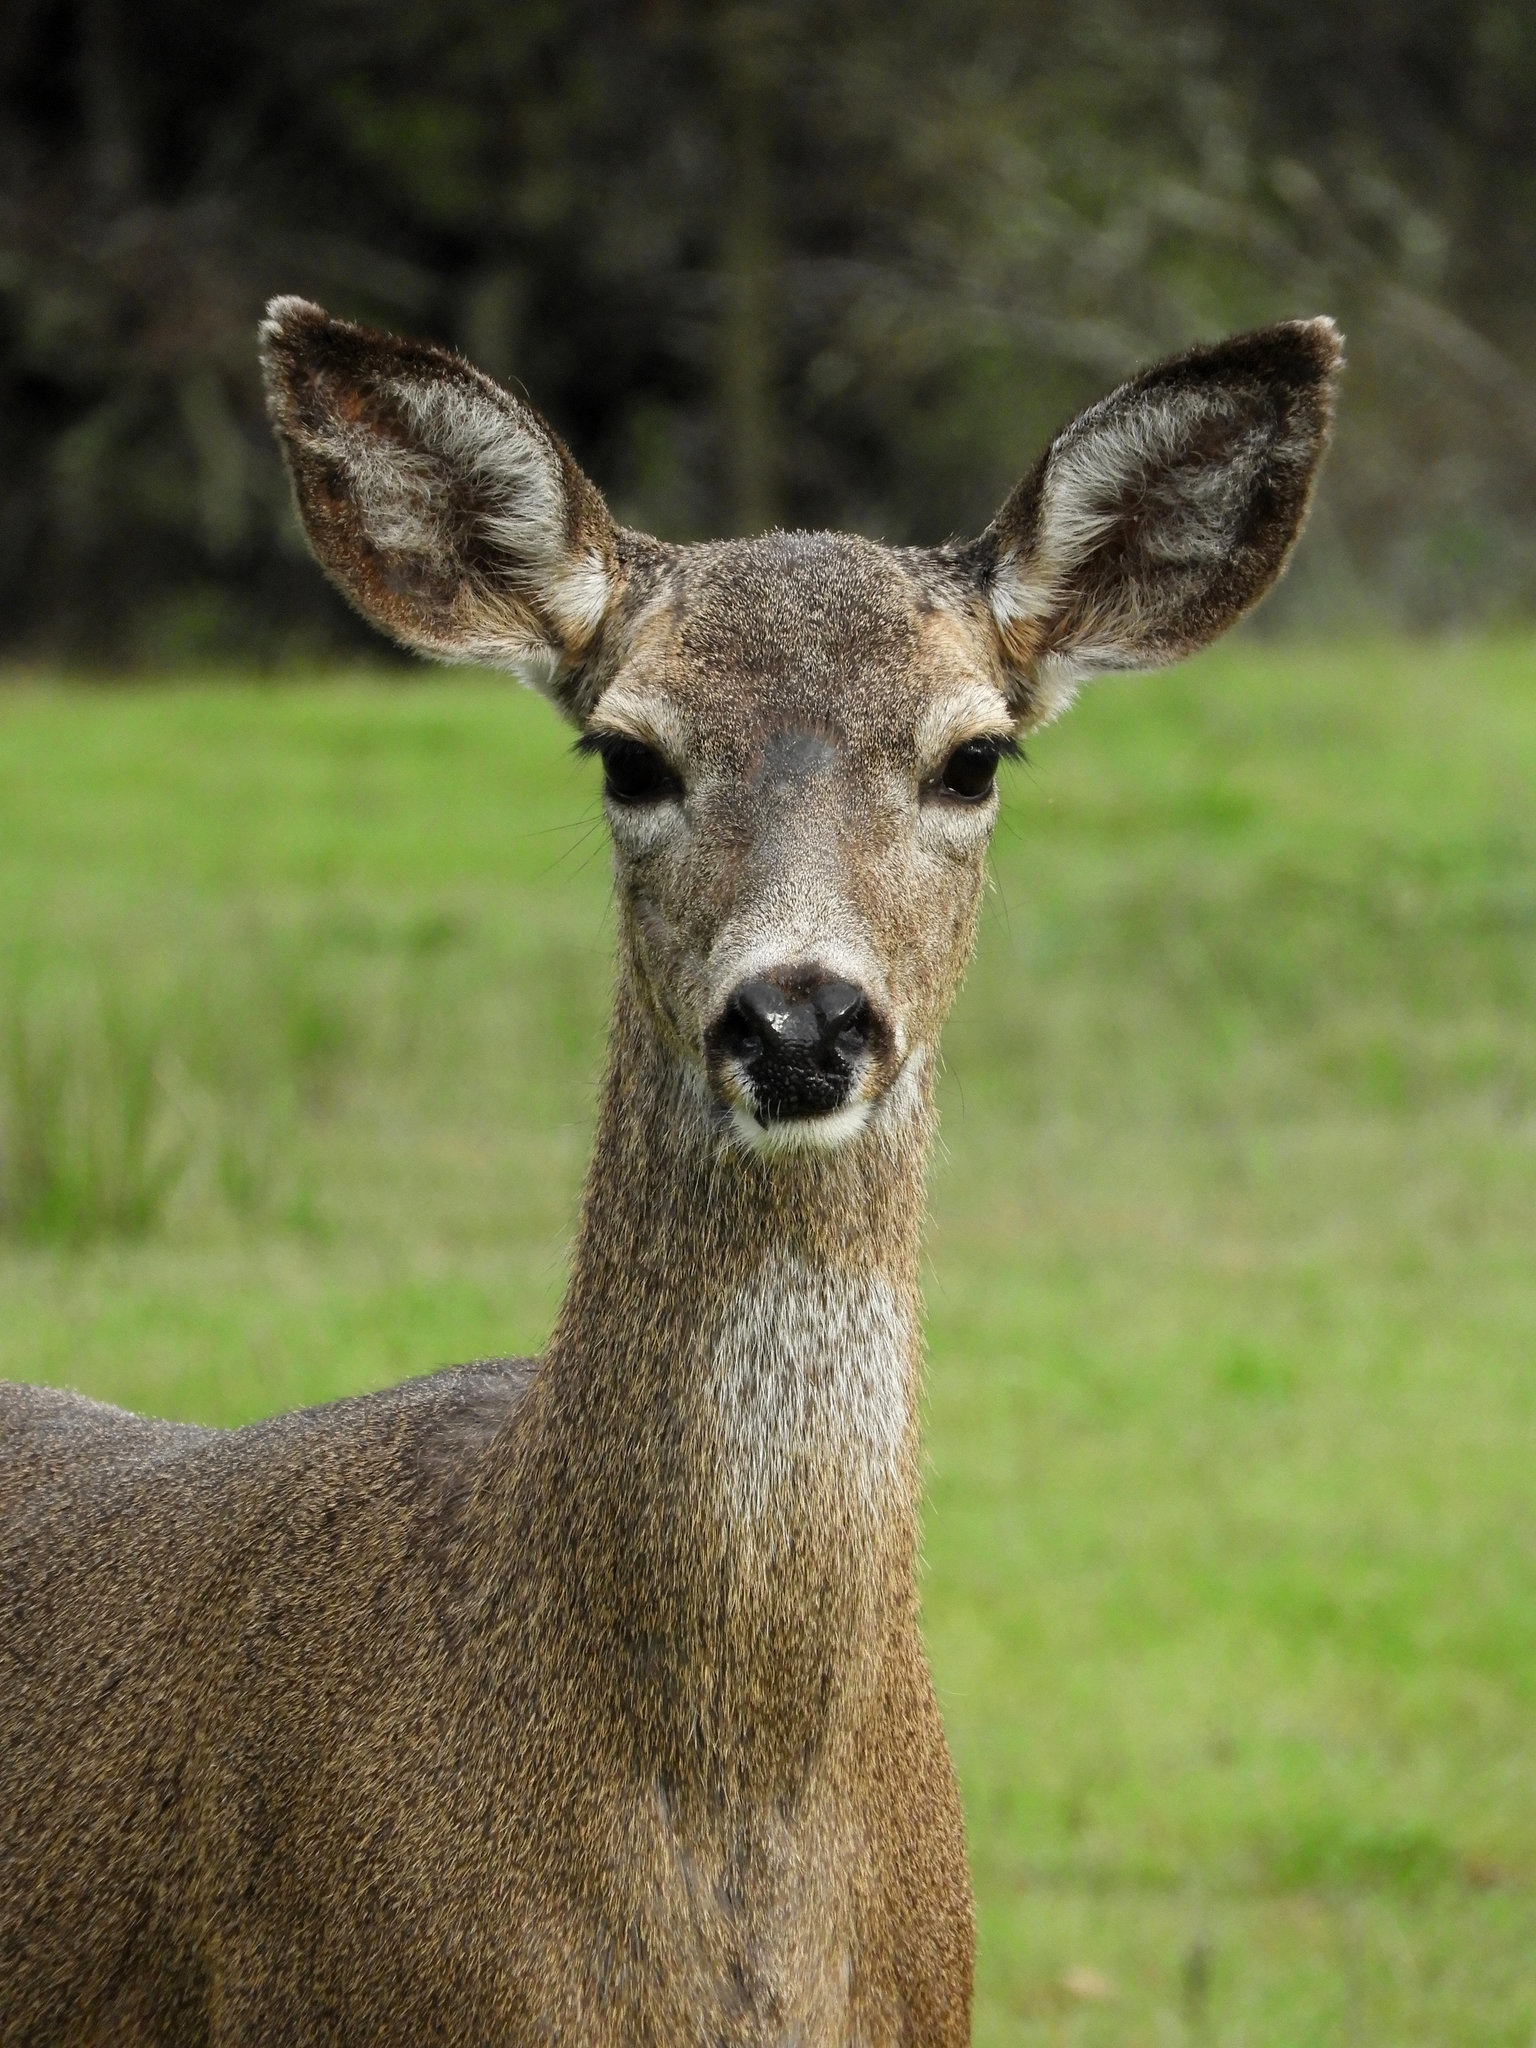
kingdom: Animalia
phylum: Chordata
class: Mammalia
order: Artiodactyla
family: Cervidae
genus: Odocoileus
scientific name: Odocoileus hemionus
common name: Mule deer
